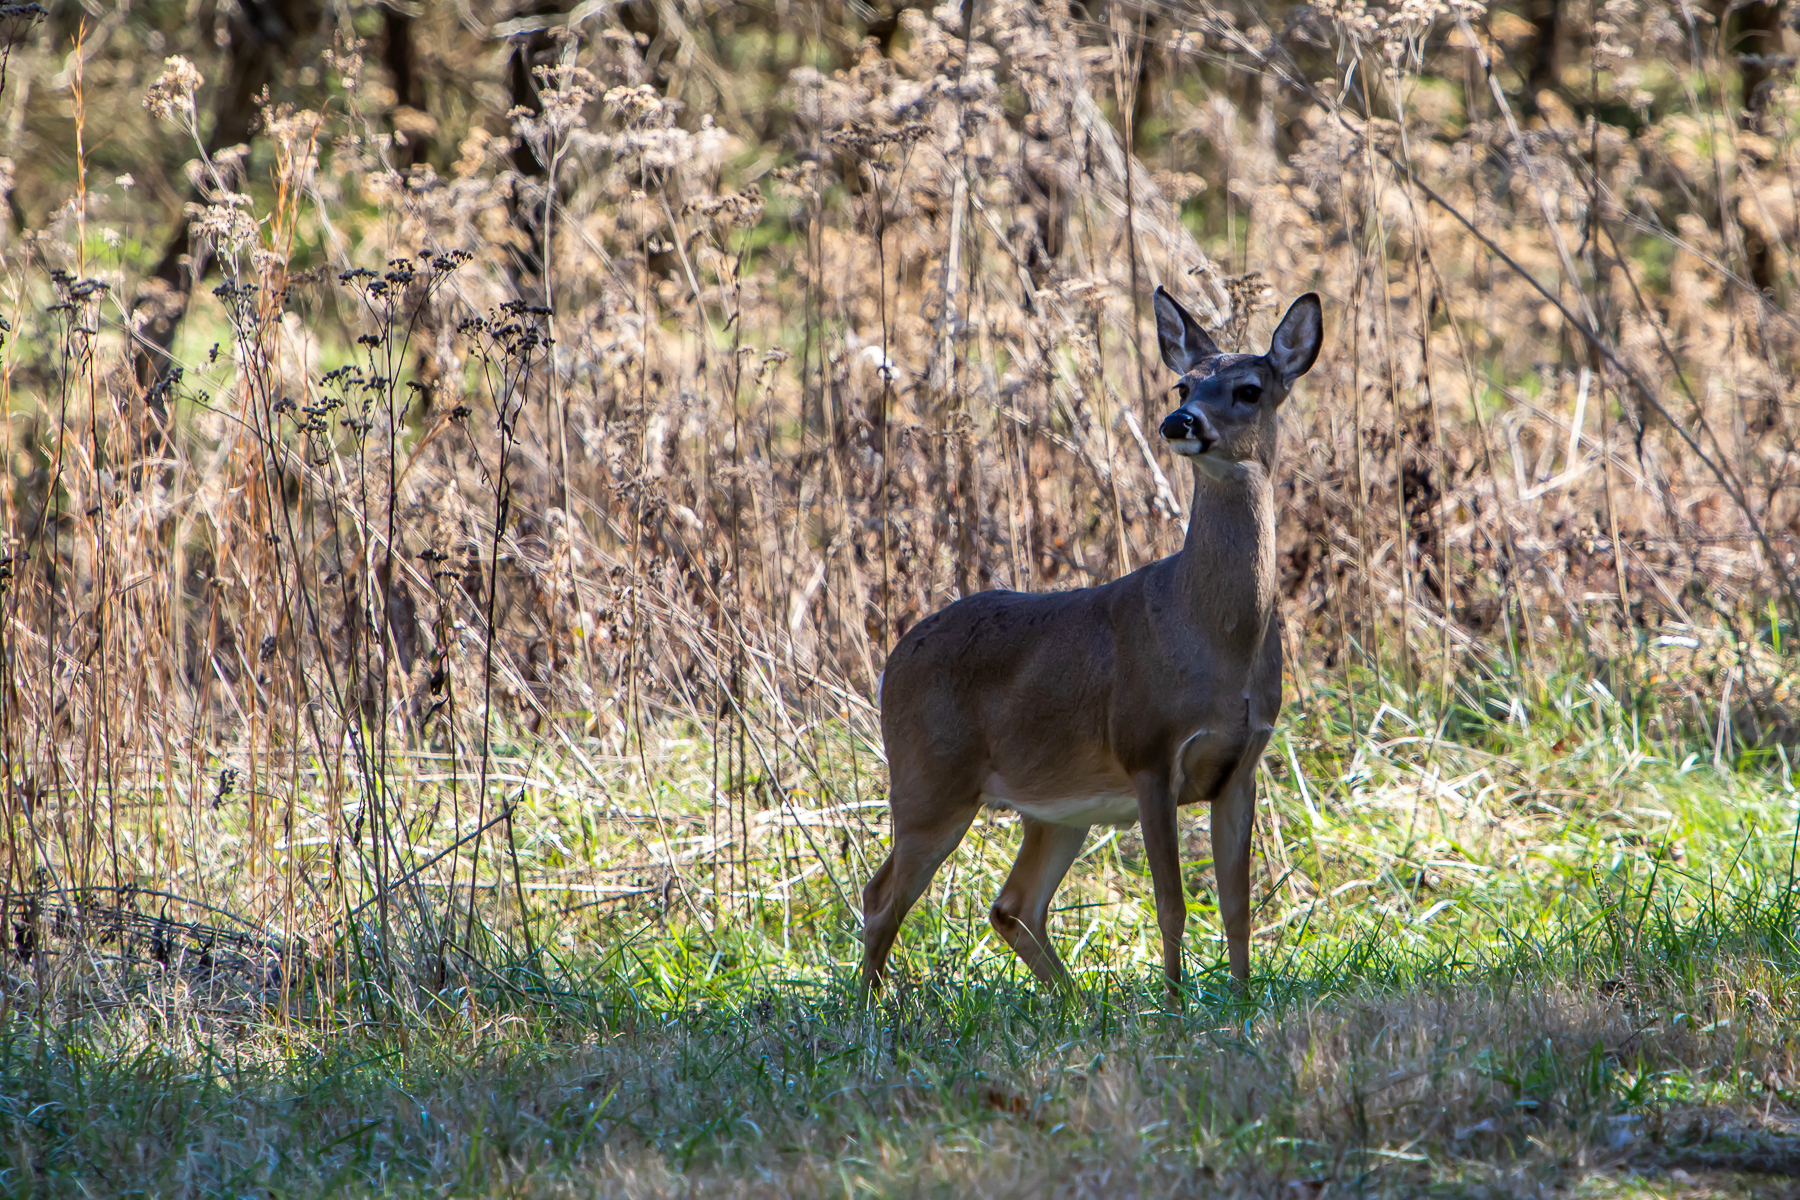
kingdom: Animalia
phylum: Chordata
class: Mammalia
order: Artiodactyla
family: Cervidae
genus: Odocoileus
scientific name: Odocoileus virginianus
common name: White-tailed deer
